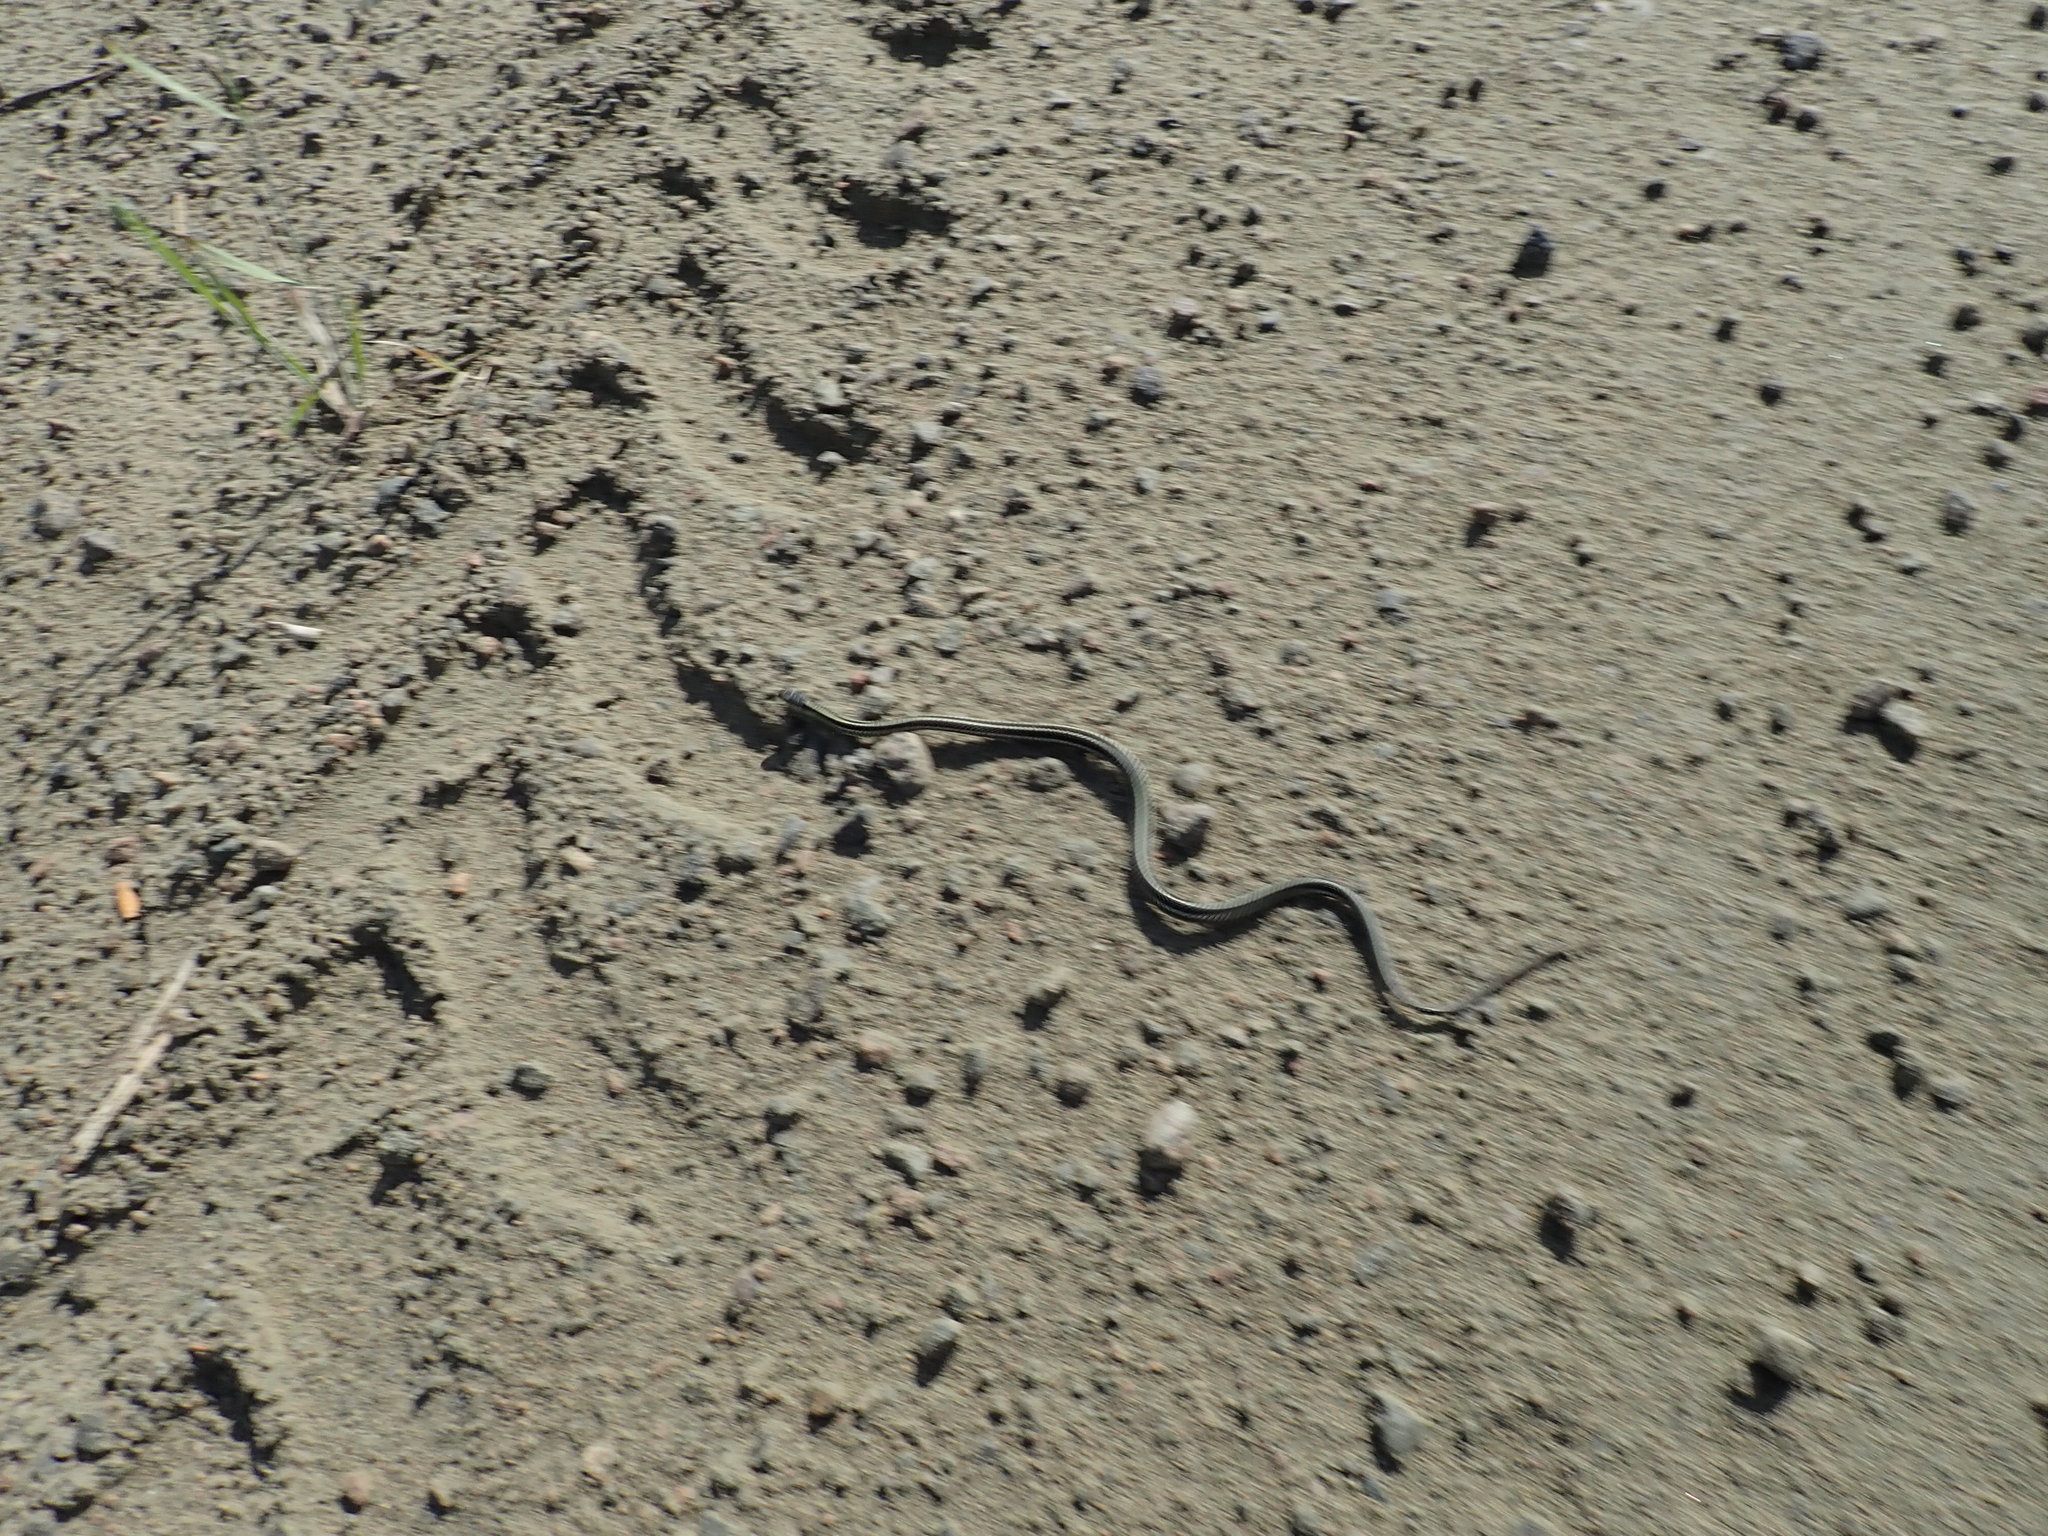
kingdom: Animalia
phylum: Chordata
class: Squamata
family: Colubridae
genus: Thamnophis
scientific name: Thamnophis sirtalis
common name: Common garter snake
